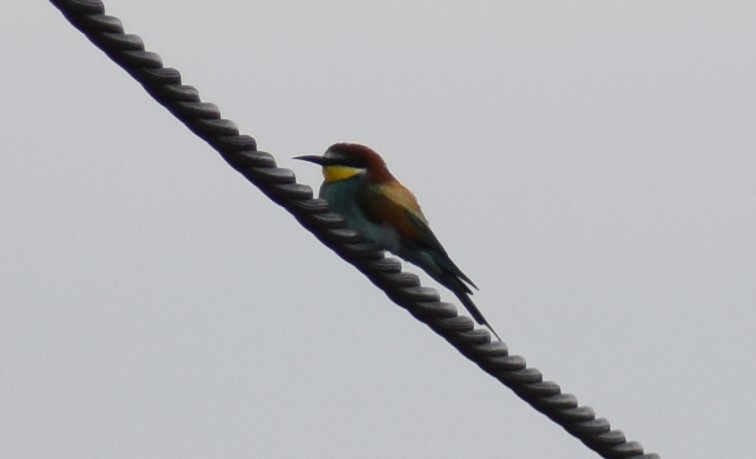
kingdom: Animalia
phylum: Chordata
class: Aves
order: Coraciiformes
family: Meropidae
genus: Merops
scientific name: Merops apiaster
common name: European bee-eater
